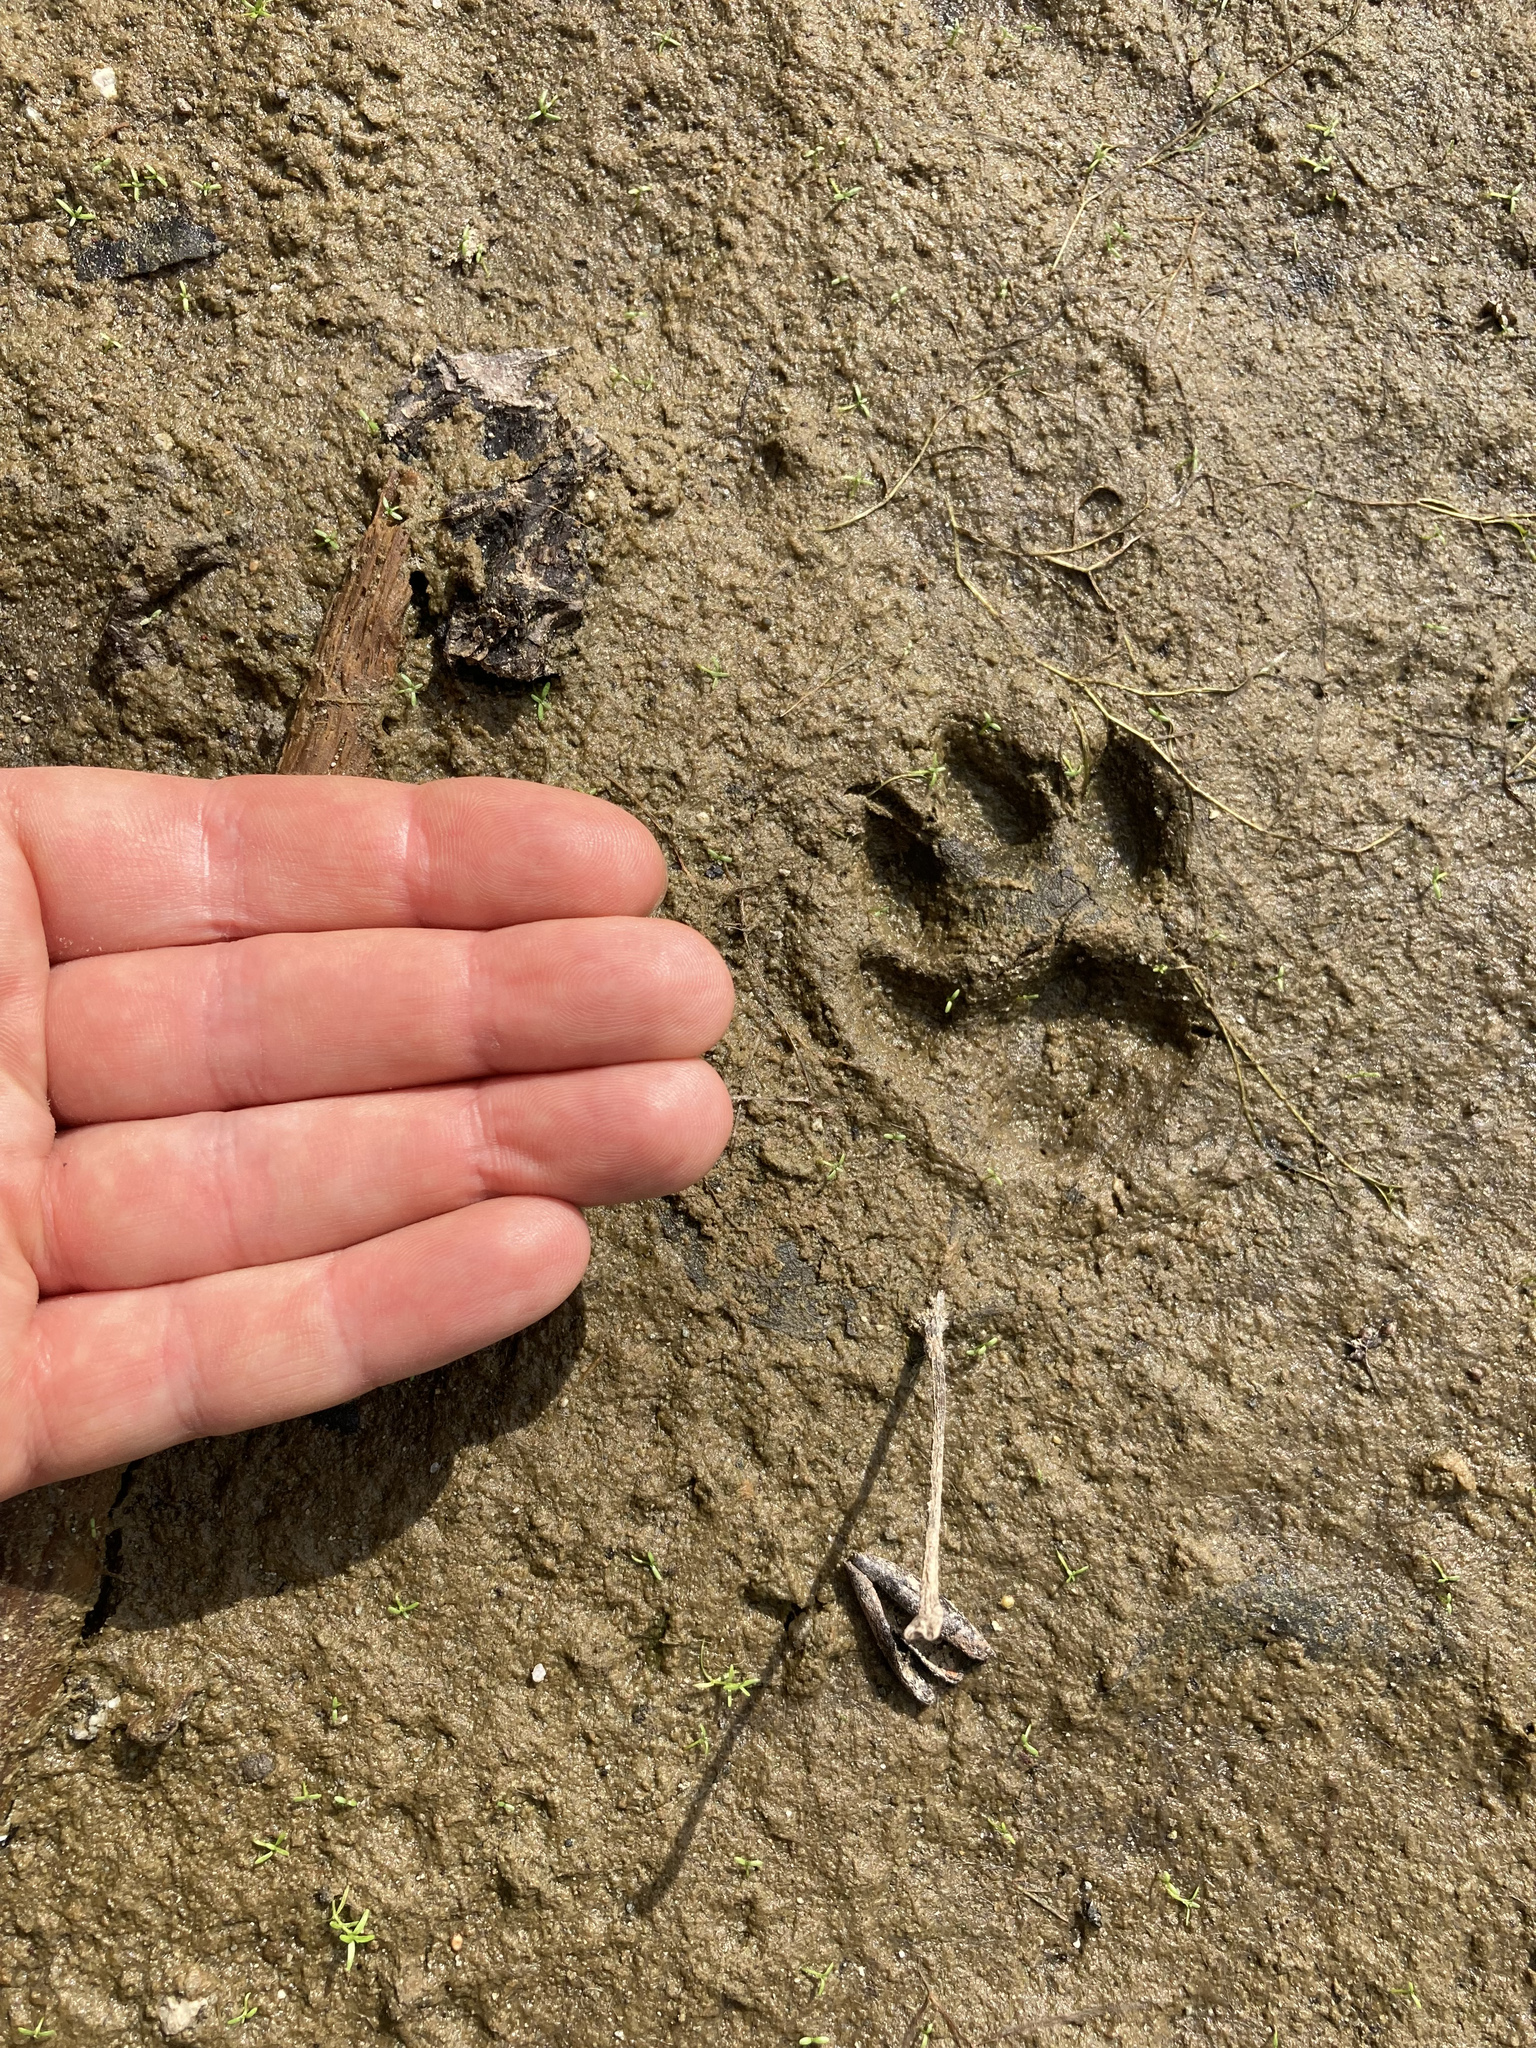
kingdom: Animalia
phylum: Chordata
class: Mammalia
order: Carnivora
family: Felidae
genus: Lynx
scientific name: Lynx rufus
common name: Bobcat
